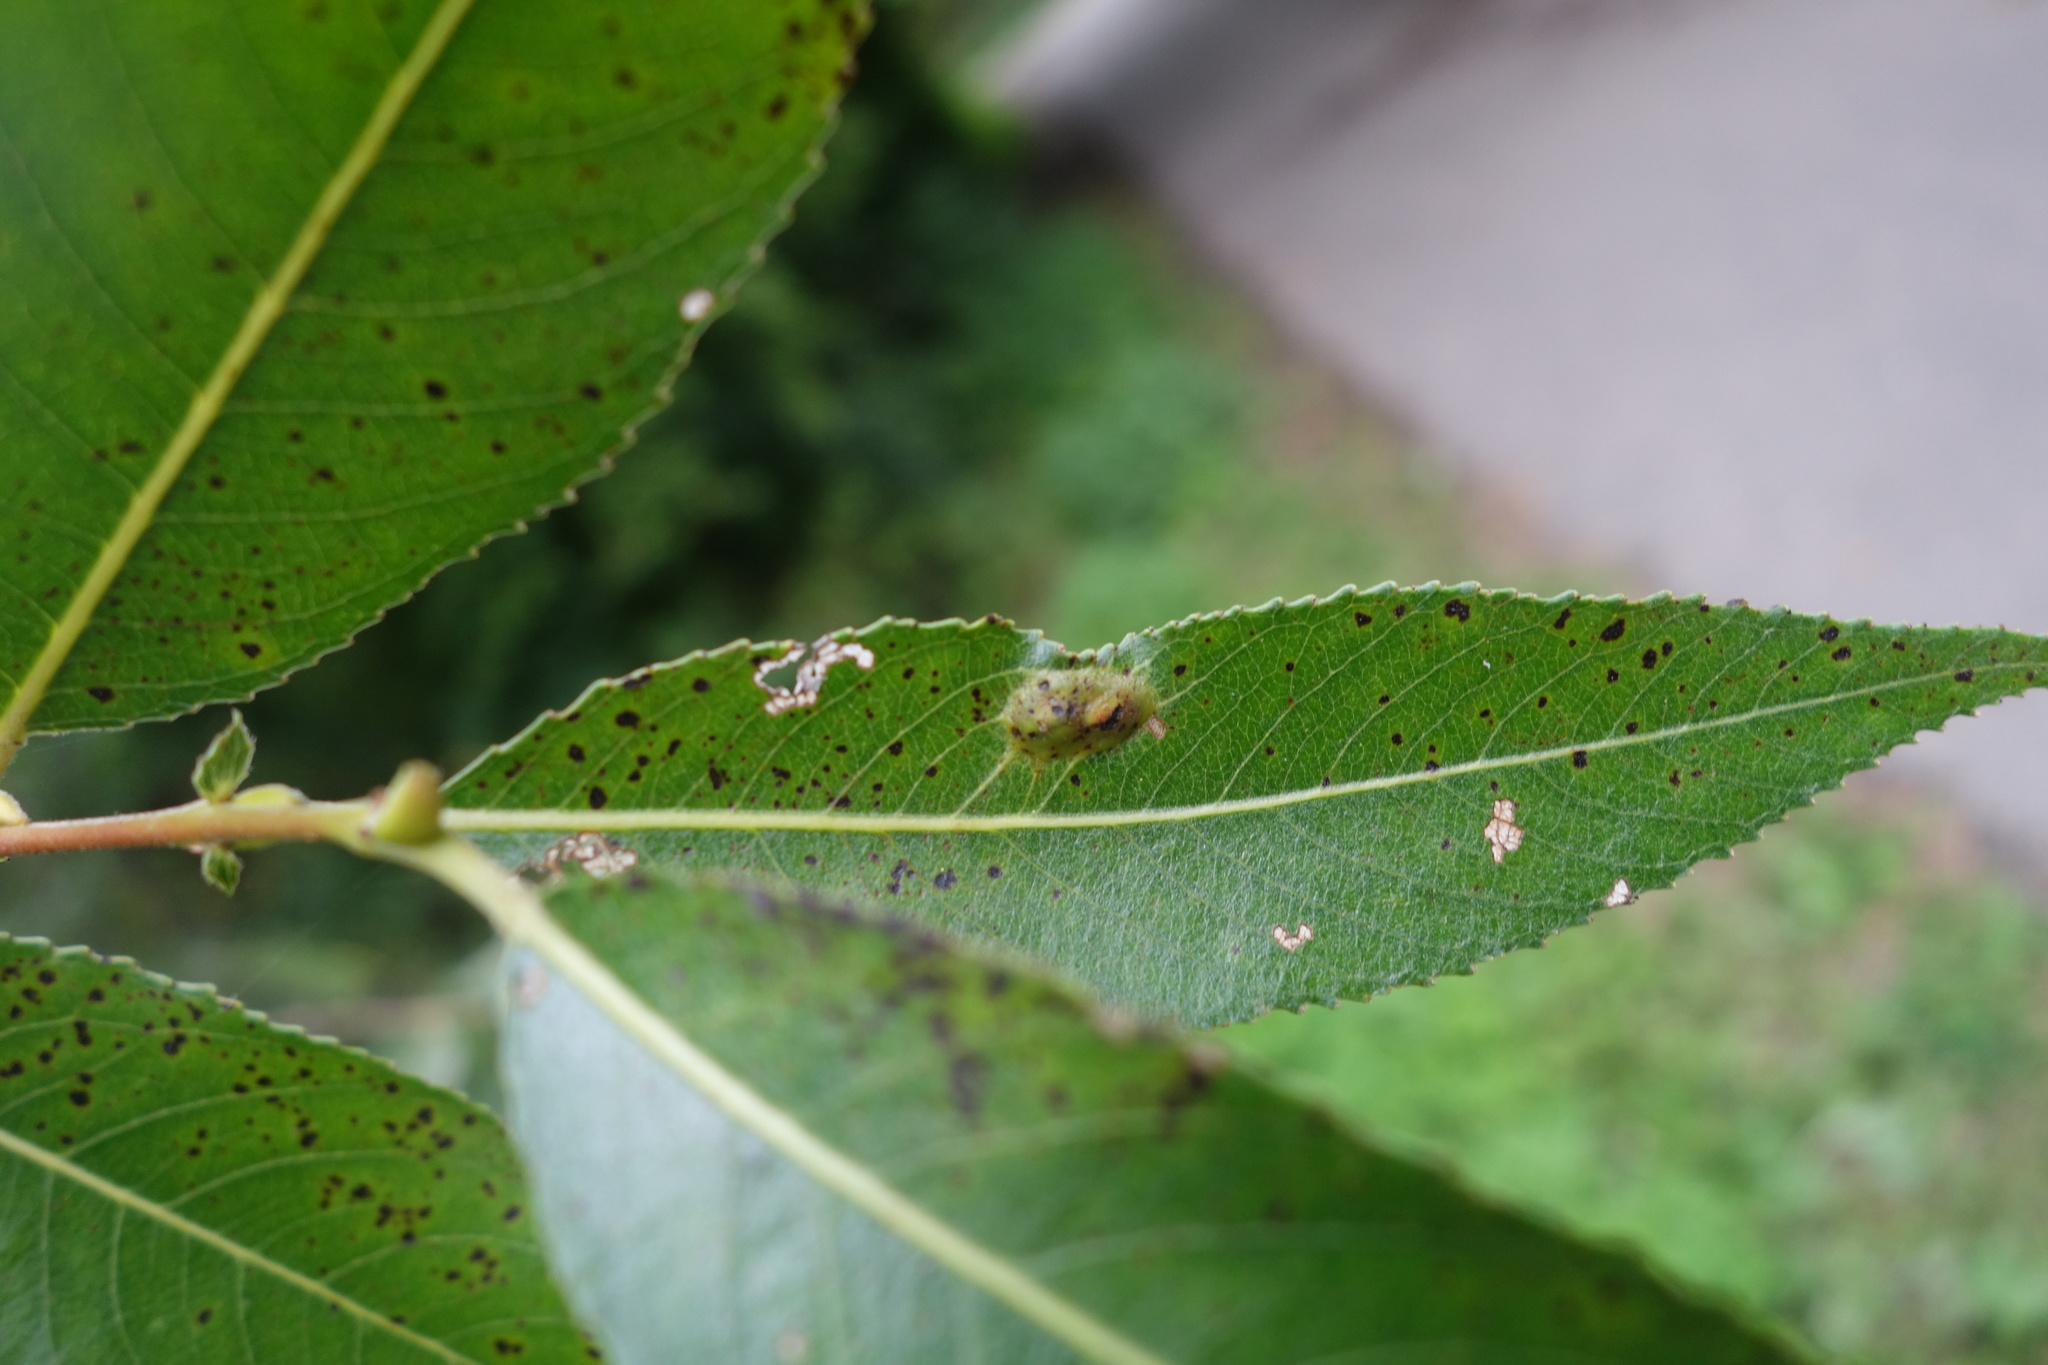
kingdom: Animalia
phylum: Arthropoda
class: Insecta
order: Hymenoptera
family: Tenthredinidae
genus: Pontania
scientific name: Pontania proxima
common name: Common sawfly
